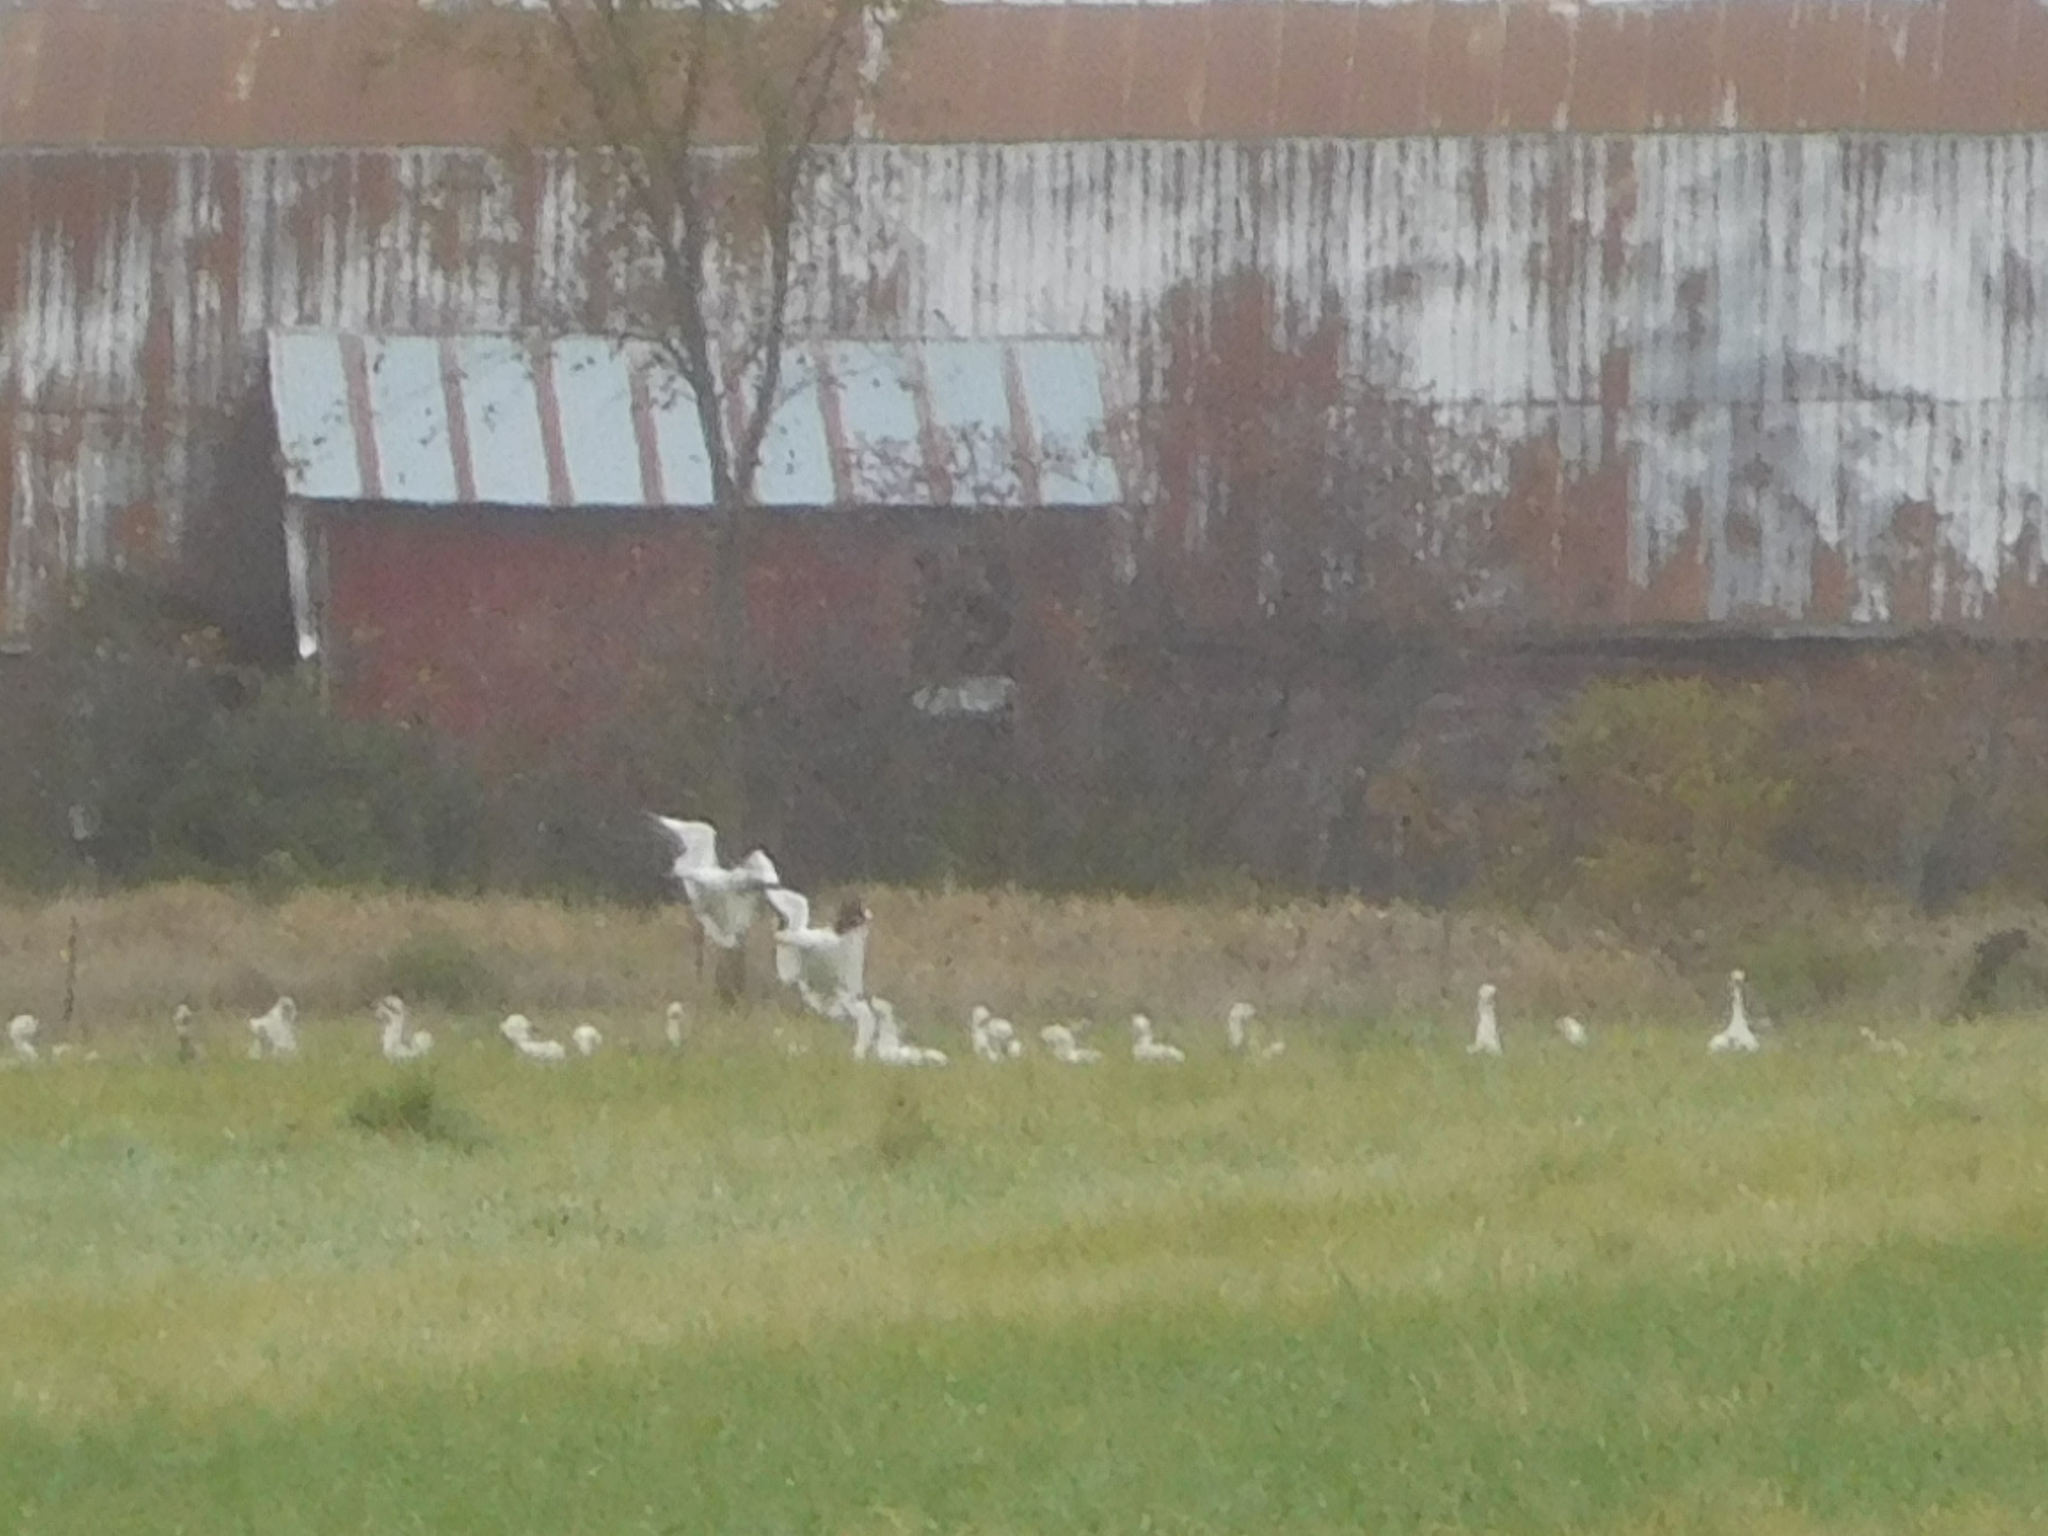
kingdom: Animalia
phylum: Chordata
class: Aves
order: Anseriformes
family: Anatidae
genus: Anser
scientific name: Anser caerulescens
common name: Snow goose
